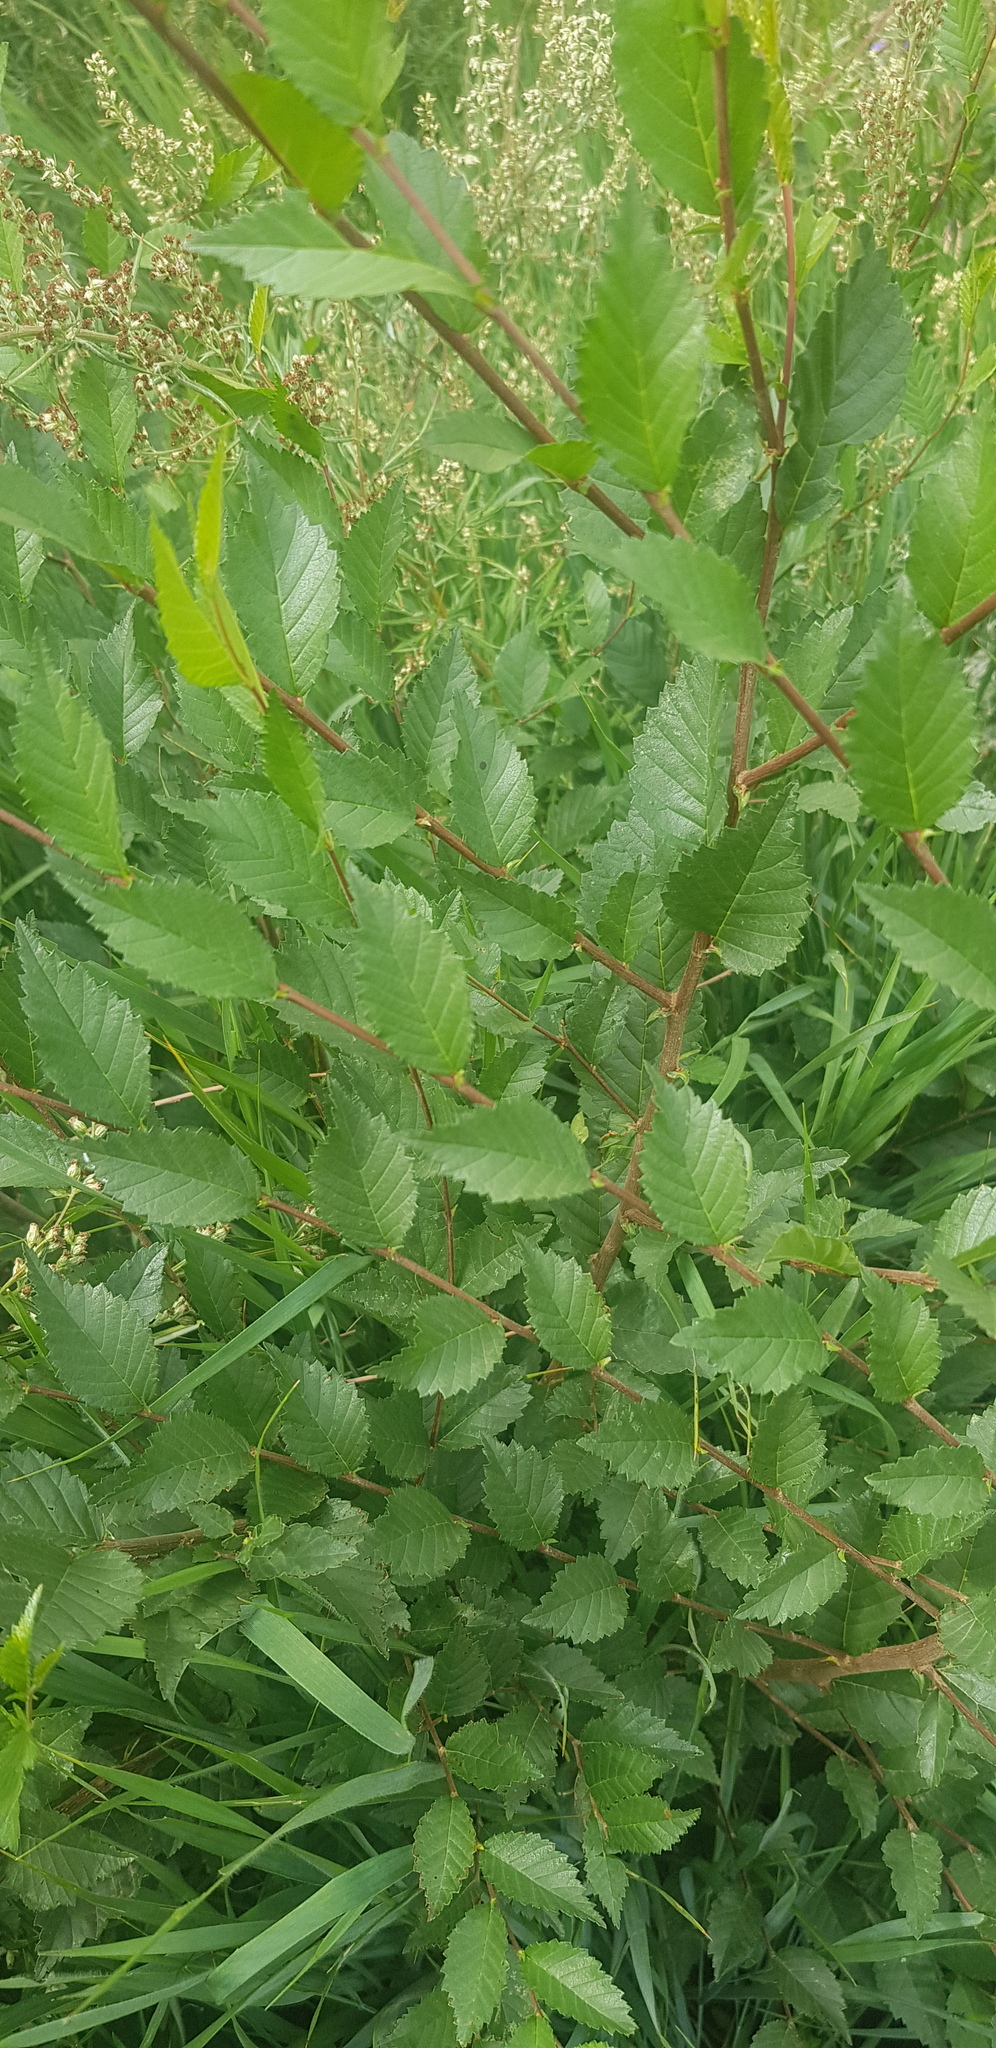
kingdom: Plantae
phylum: Tracheophyta
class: Magnoliopsida
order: Rosales
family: Ulmaceae
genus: Ulmus
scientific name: Ulmus pumila
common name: Siberian elm
